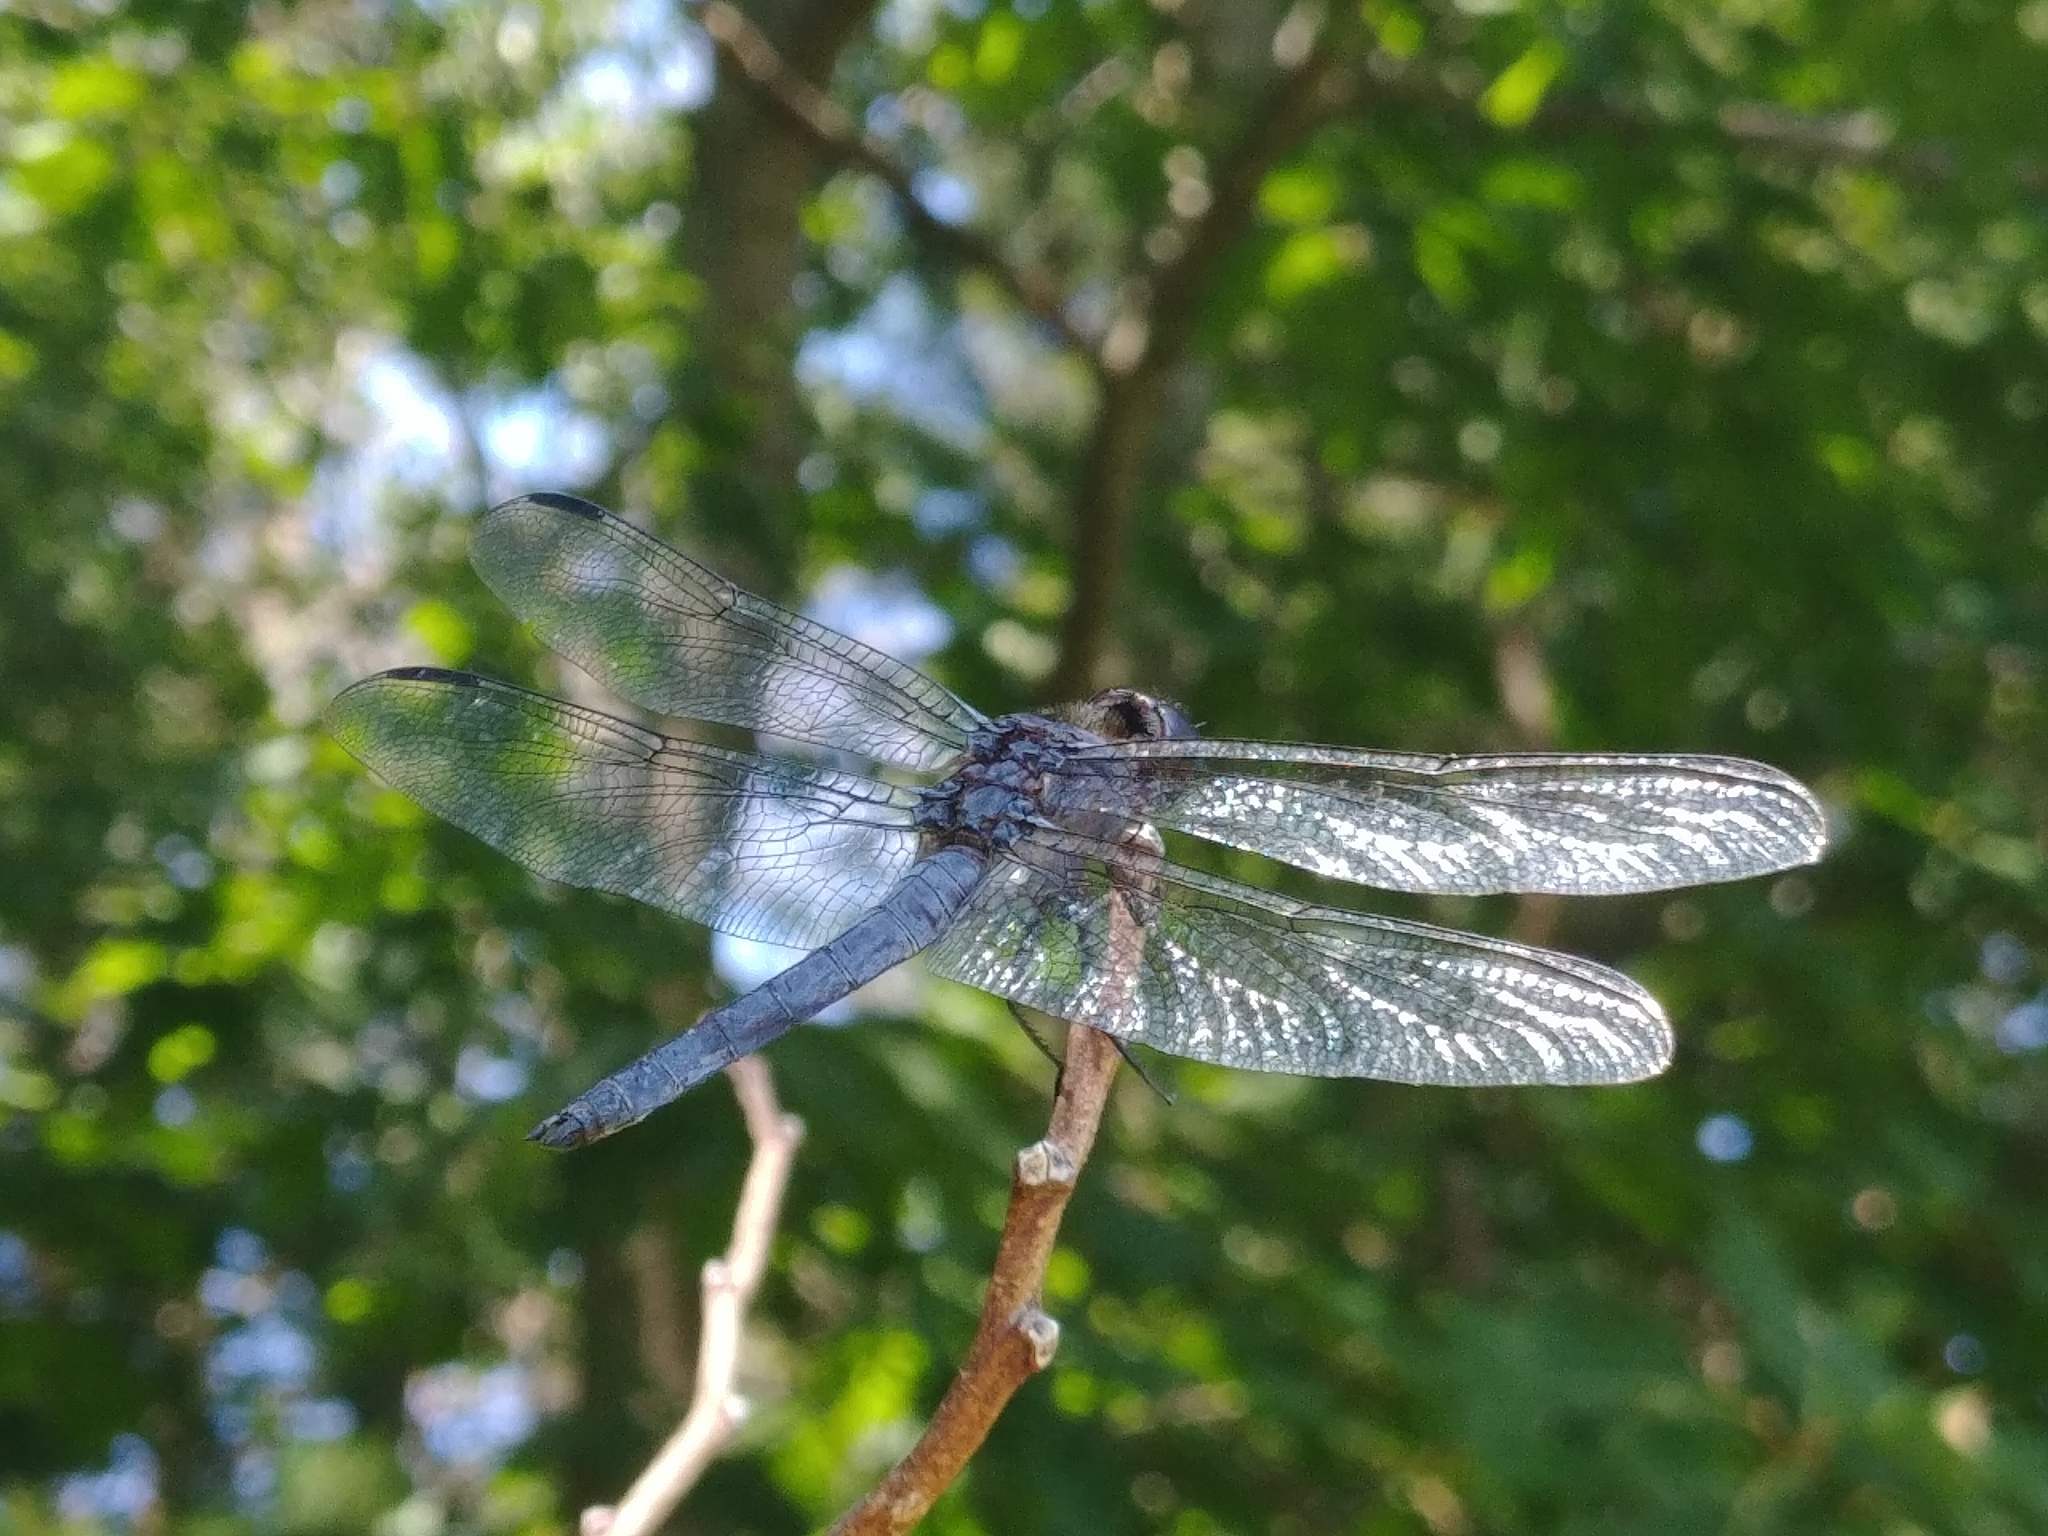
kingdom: Animalia
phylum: Arthropoda
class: Insecta
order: Odonata
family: Libellulidae
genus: Libellula
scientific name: Libellula incesta
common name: Slaty skimmer
